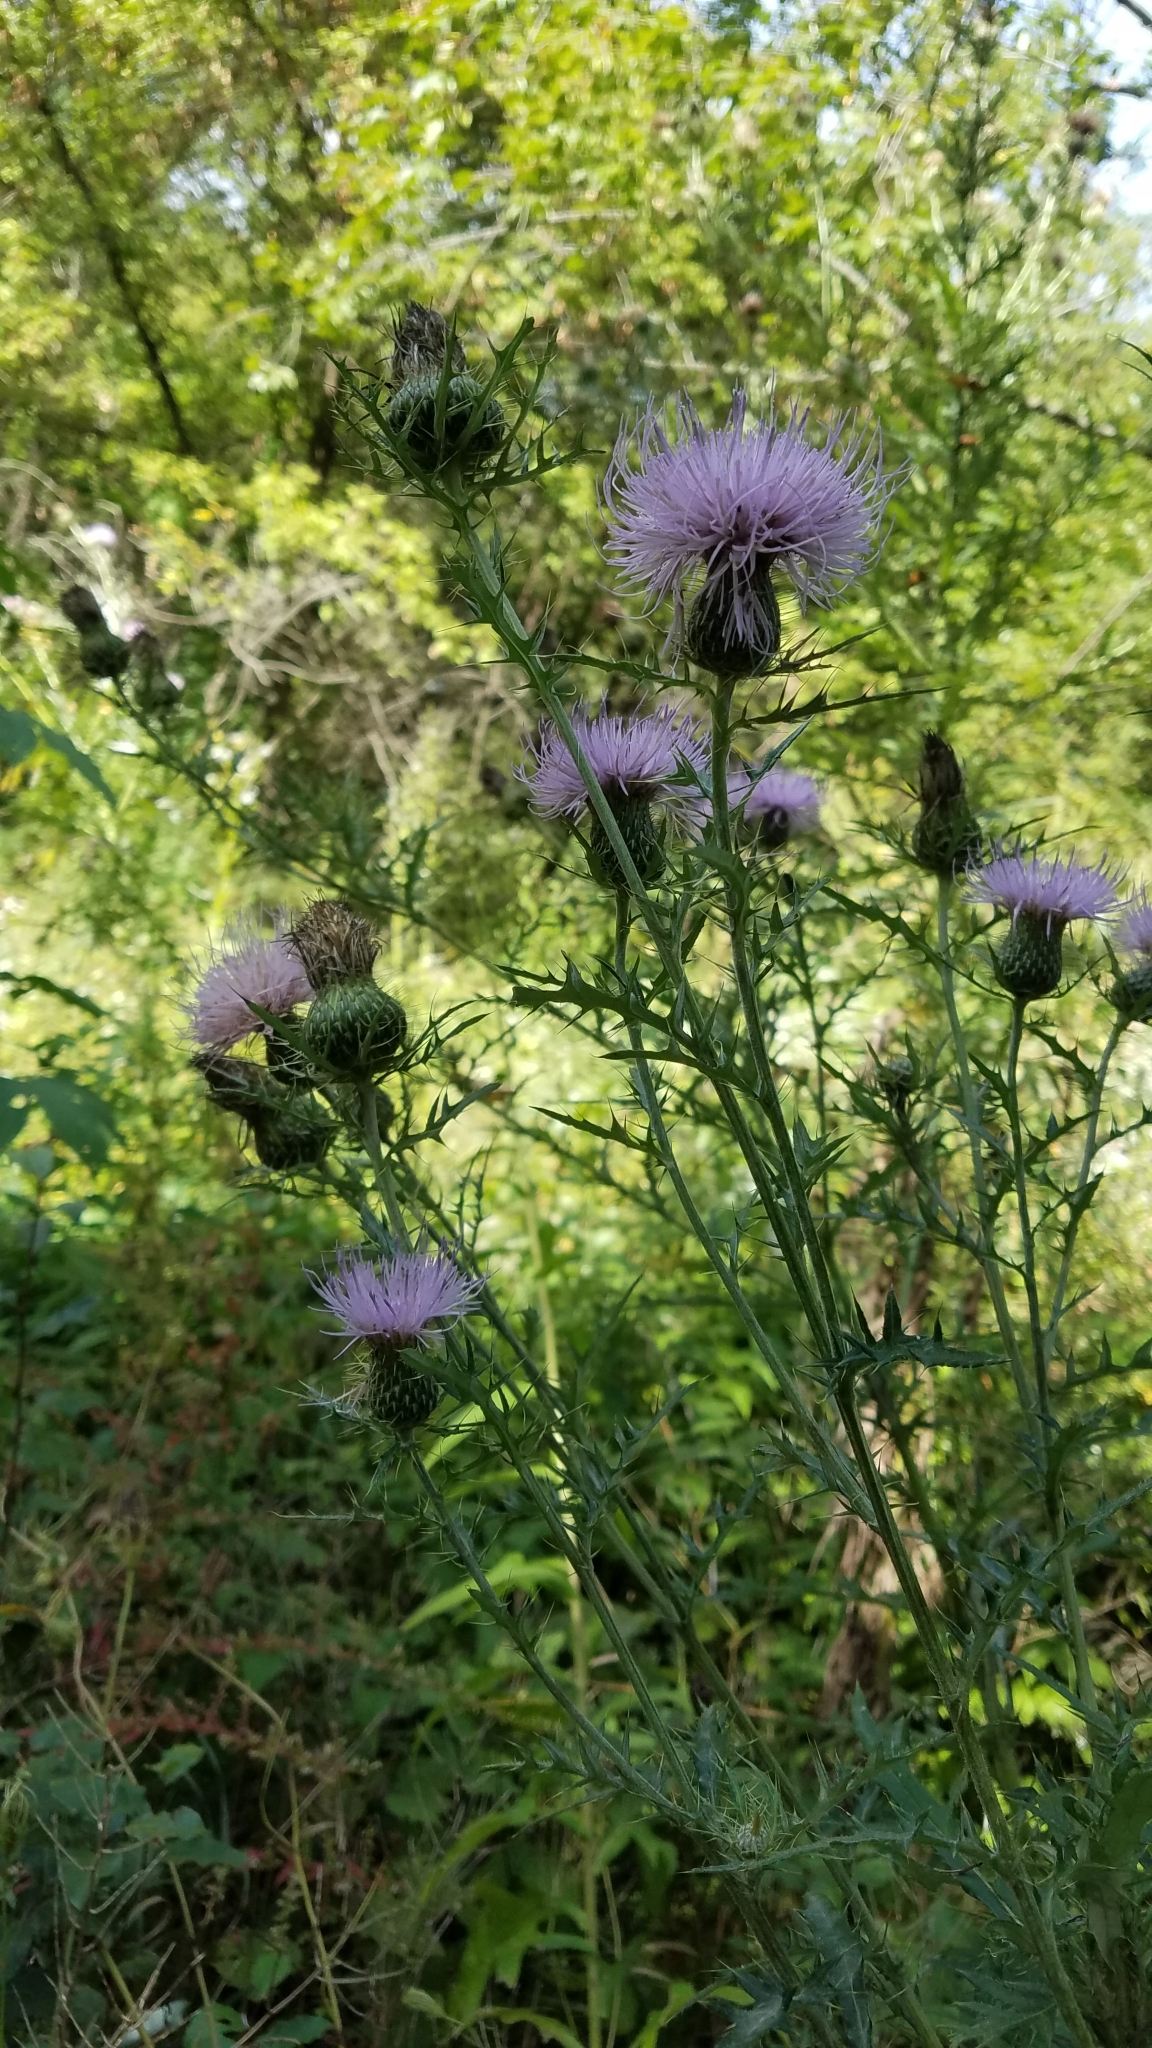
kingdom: Plantae
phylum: Tracheophyta
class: Magnoliopsida
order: Asterales
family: Asteraceae
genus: Cirsium
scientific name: Cirsium discolor
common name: Field thistle
